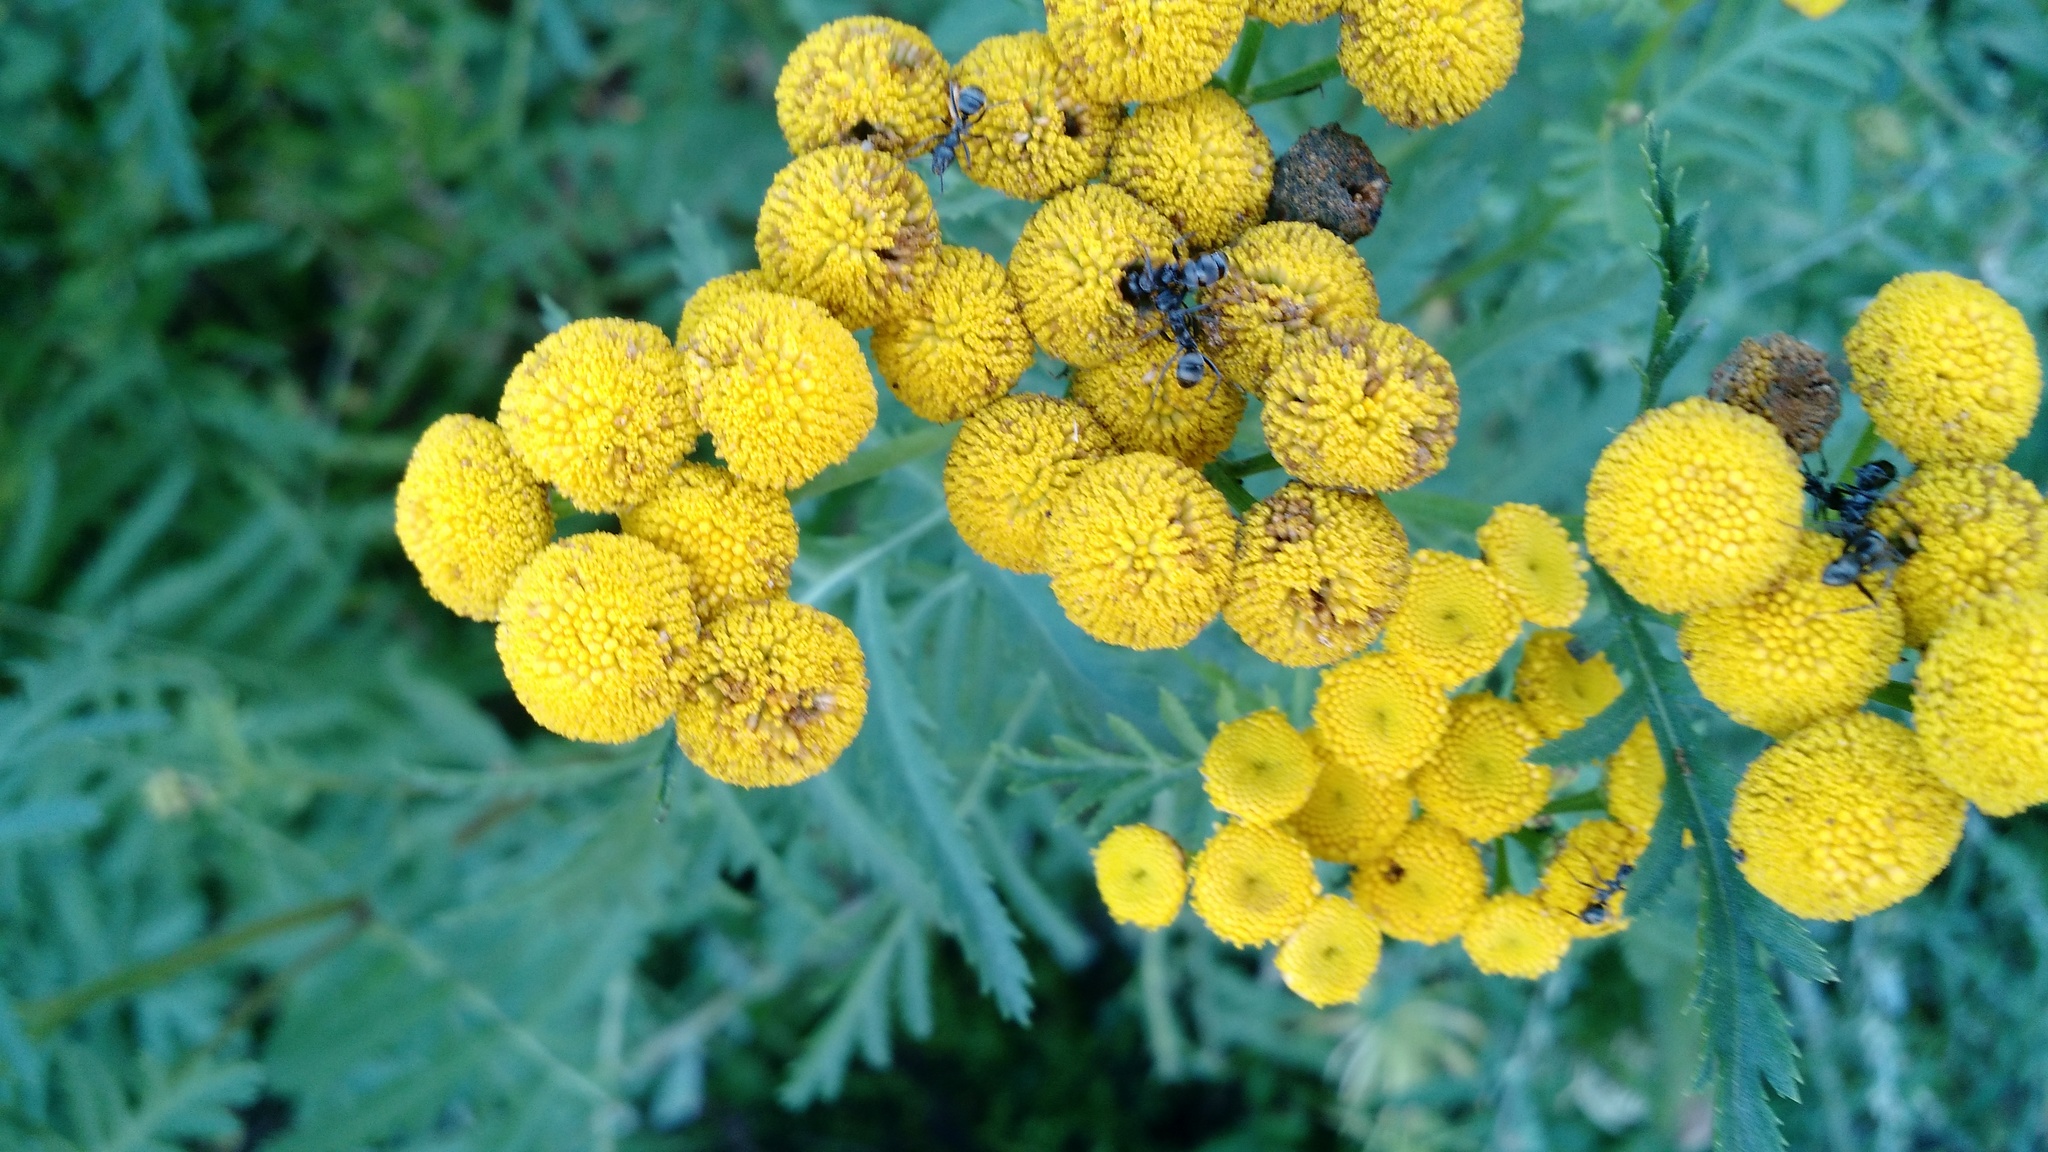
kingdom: Plantae
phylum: Tracheophyta
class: Magnoliopsida
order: Asterales
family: Asteraceae
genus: Tanacetum
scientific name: Tanacetum vulgare
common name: Common tansy
